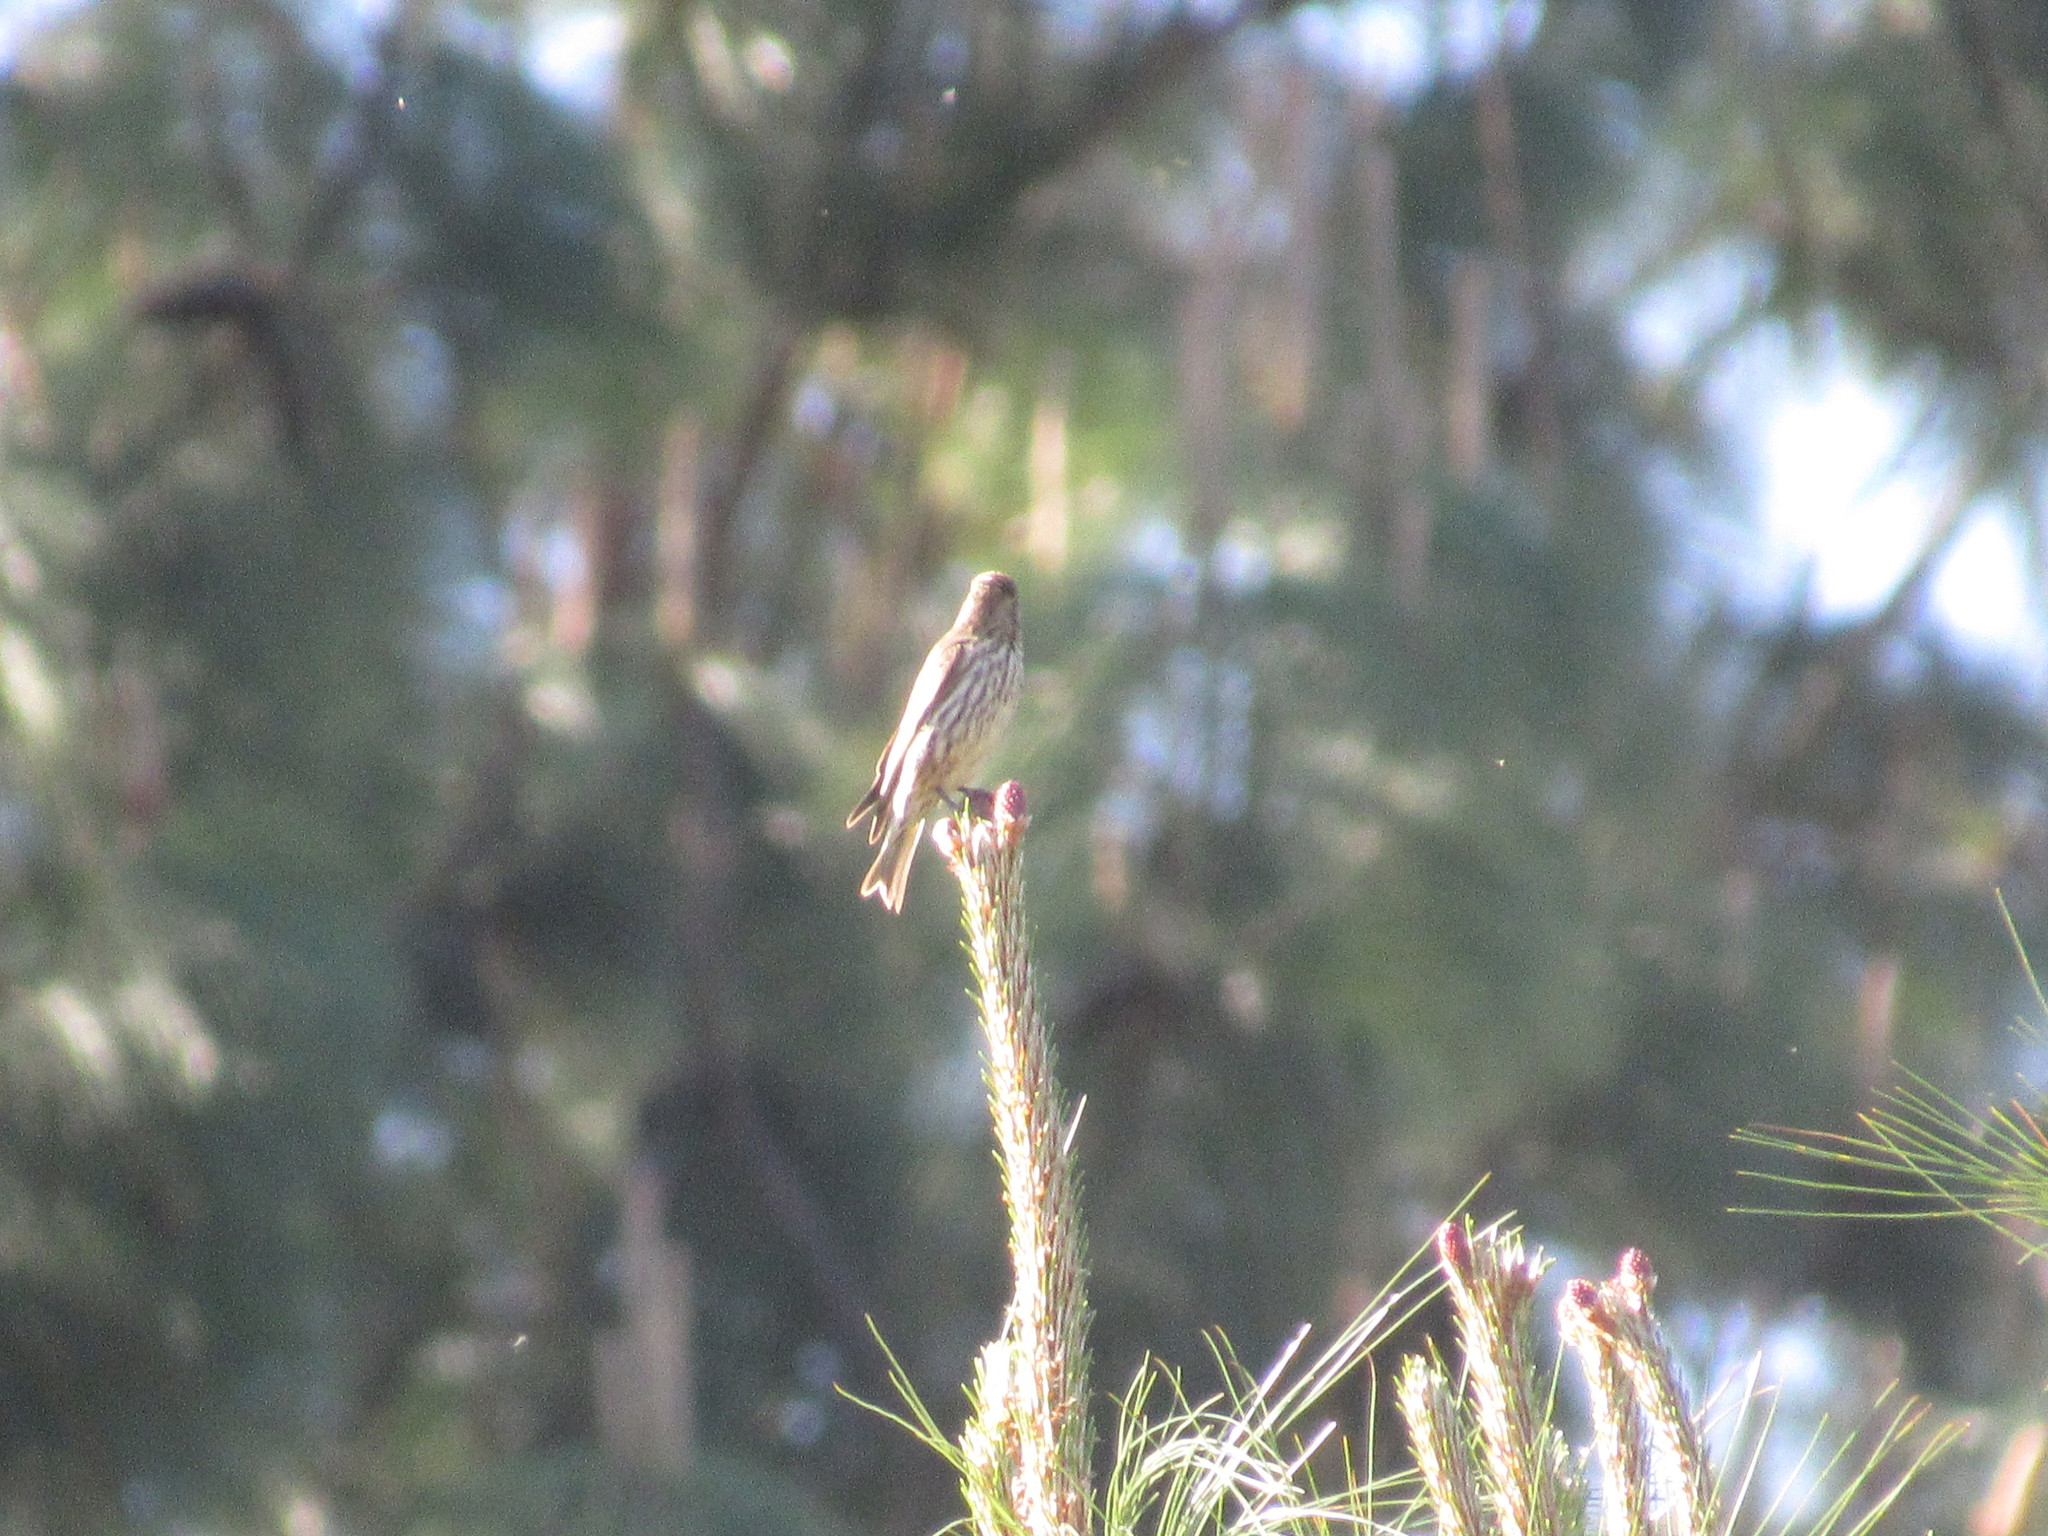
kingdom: Animalia
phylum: Chordata
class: Aves
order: Passeriformes
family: Fringillidae
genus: Spinus
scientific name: Spinus pinus
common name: Pine siskin
